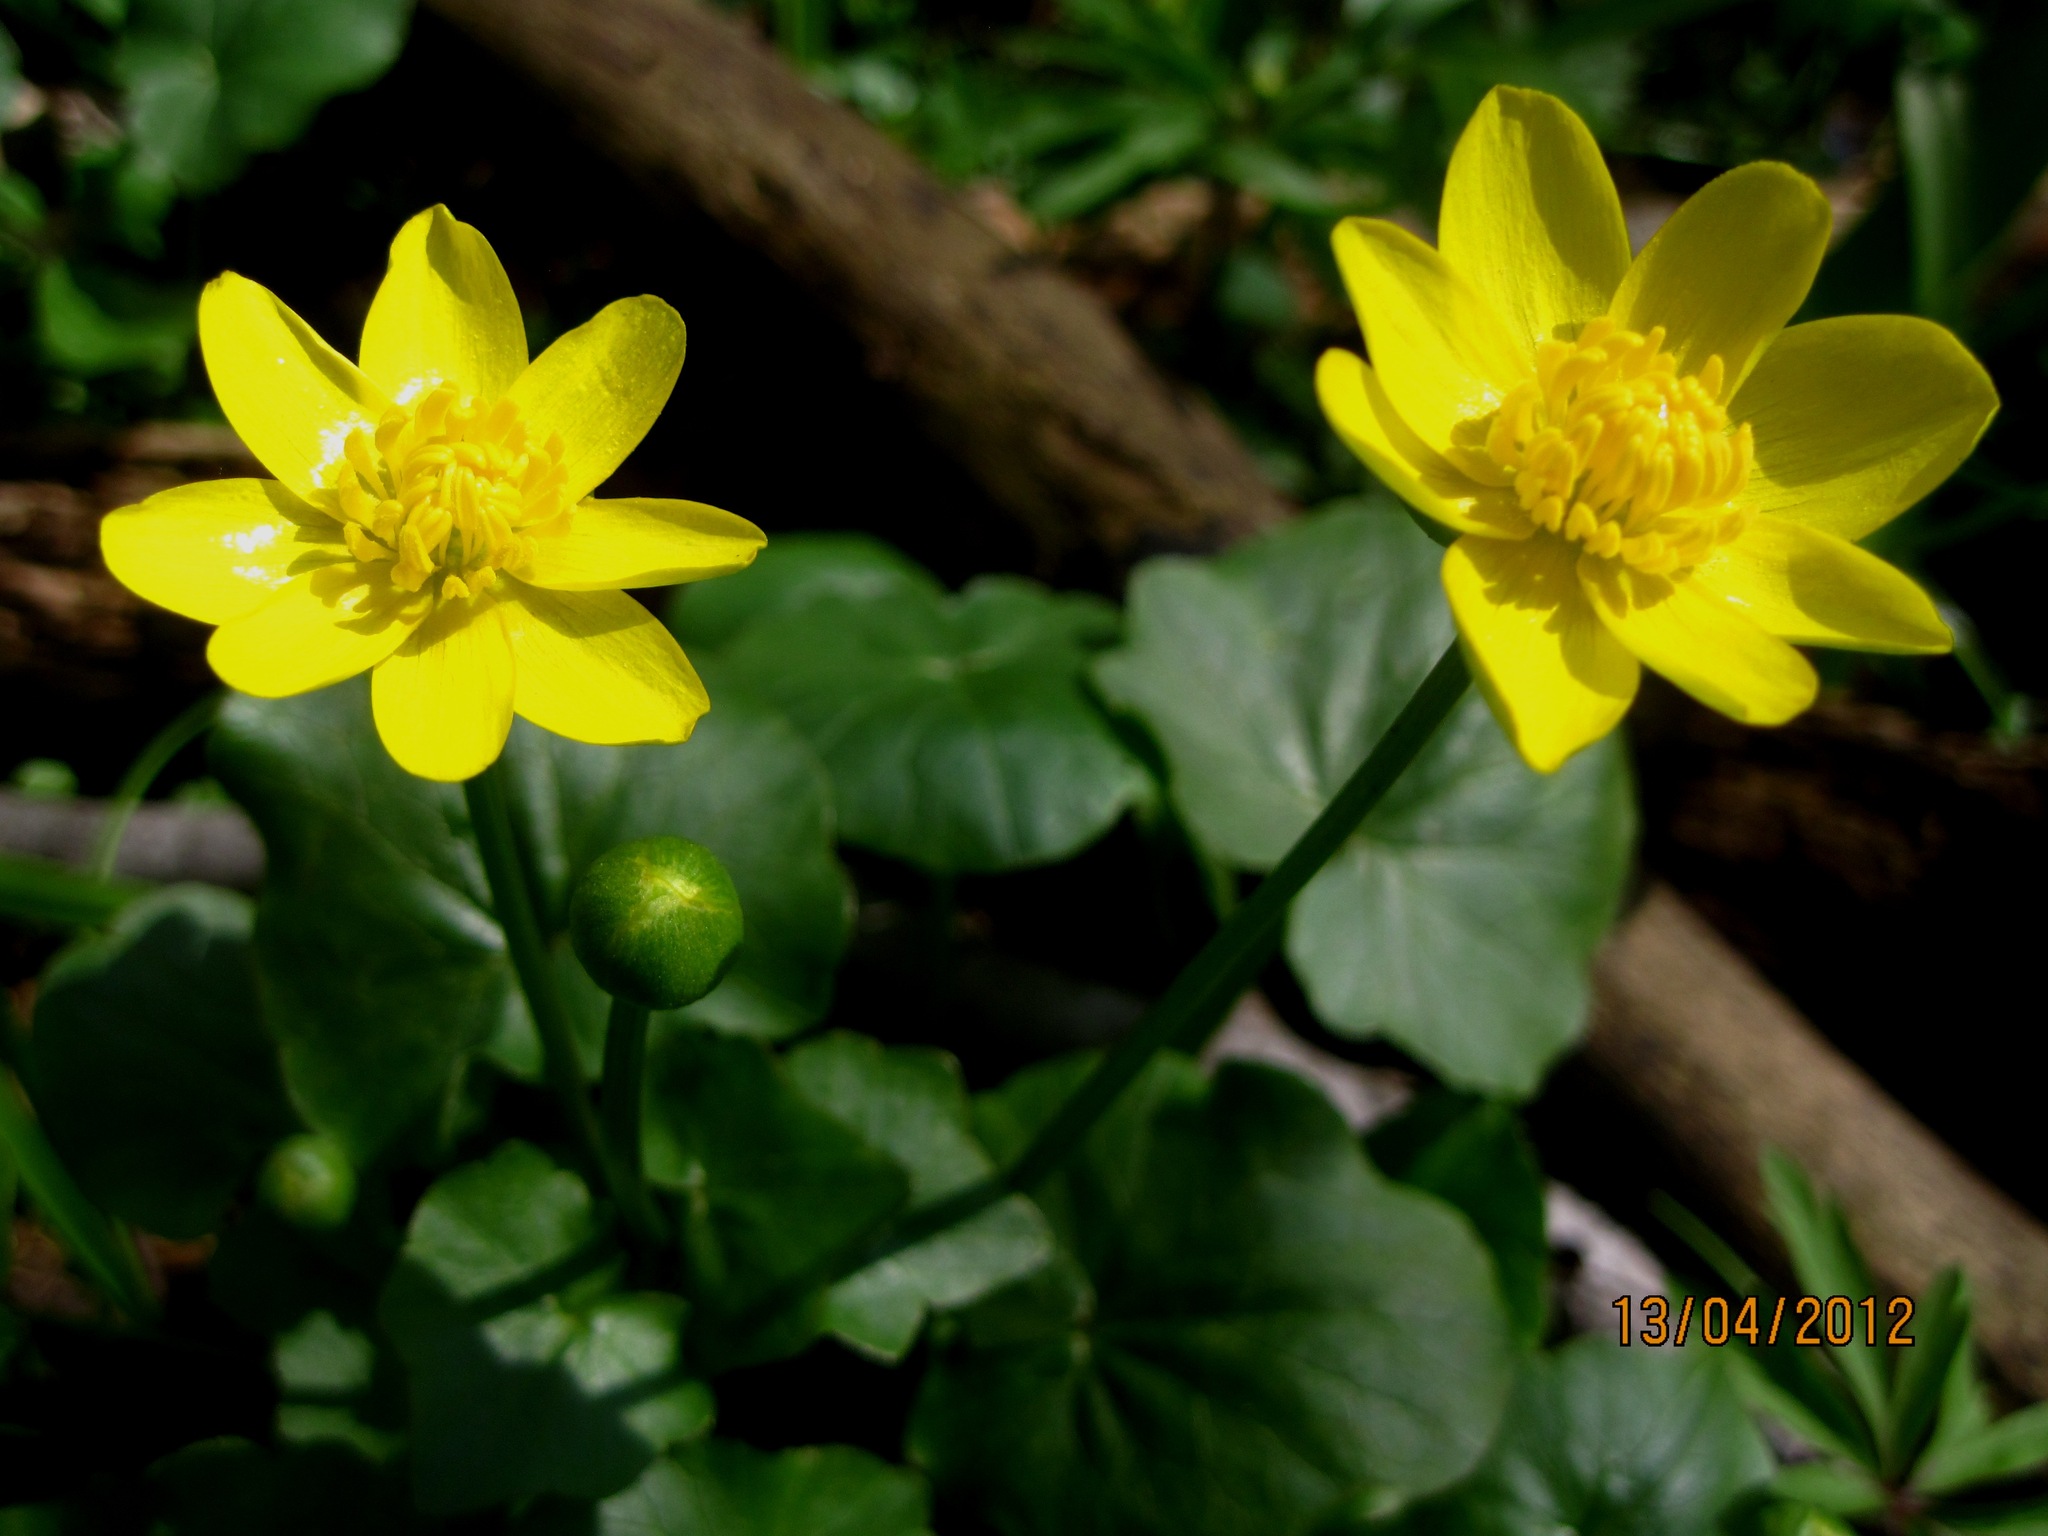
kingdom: Plantae
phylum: Tracheophyta
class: Magnoliopsida
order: Ranunculales
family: Ranunculaceae
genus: Ficaria
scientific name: Ficaria verna
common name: Lesser celandine
